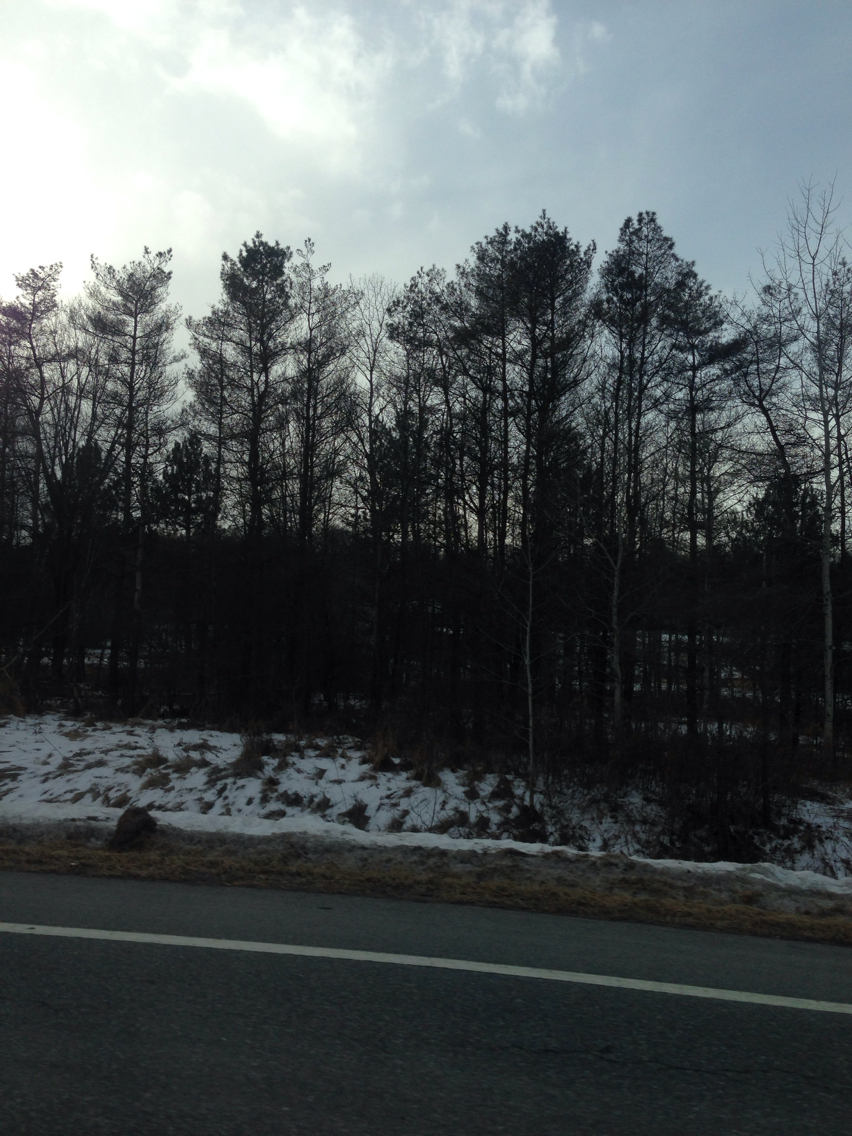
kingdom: Plantae
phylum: Tracheophyta
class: Pinopsida
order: Pinales
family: Pinaceae
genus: Pinus
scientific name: Pinus sylvestris
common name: Scots pine
